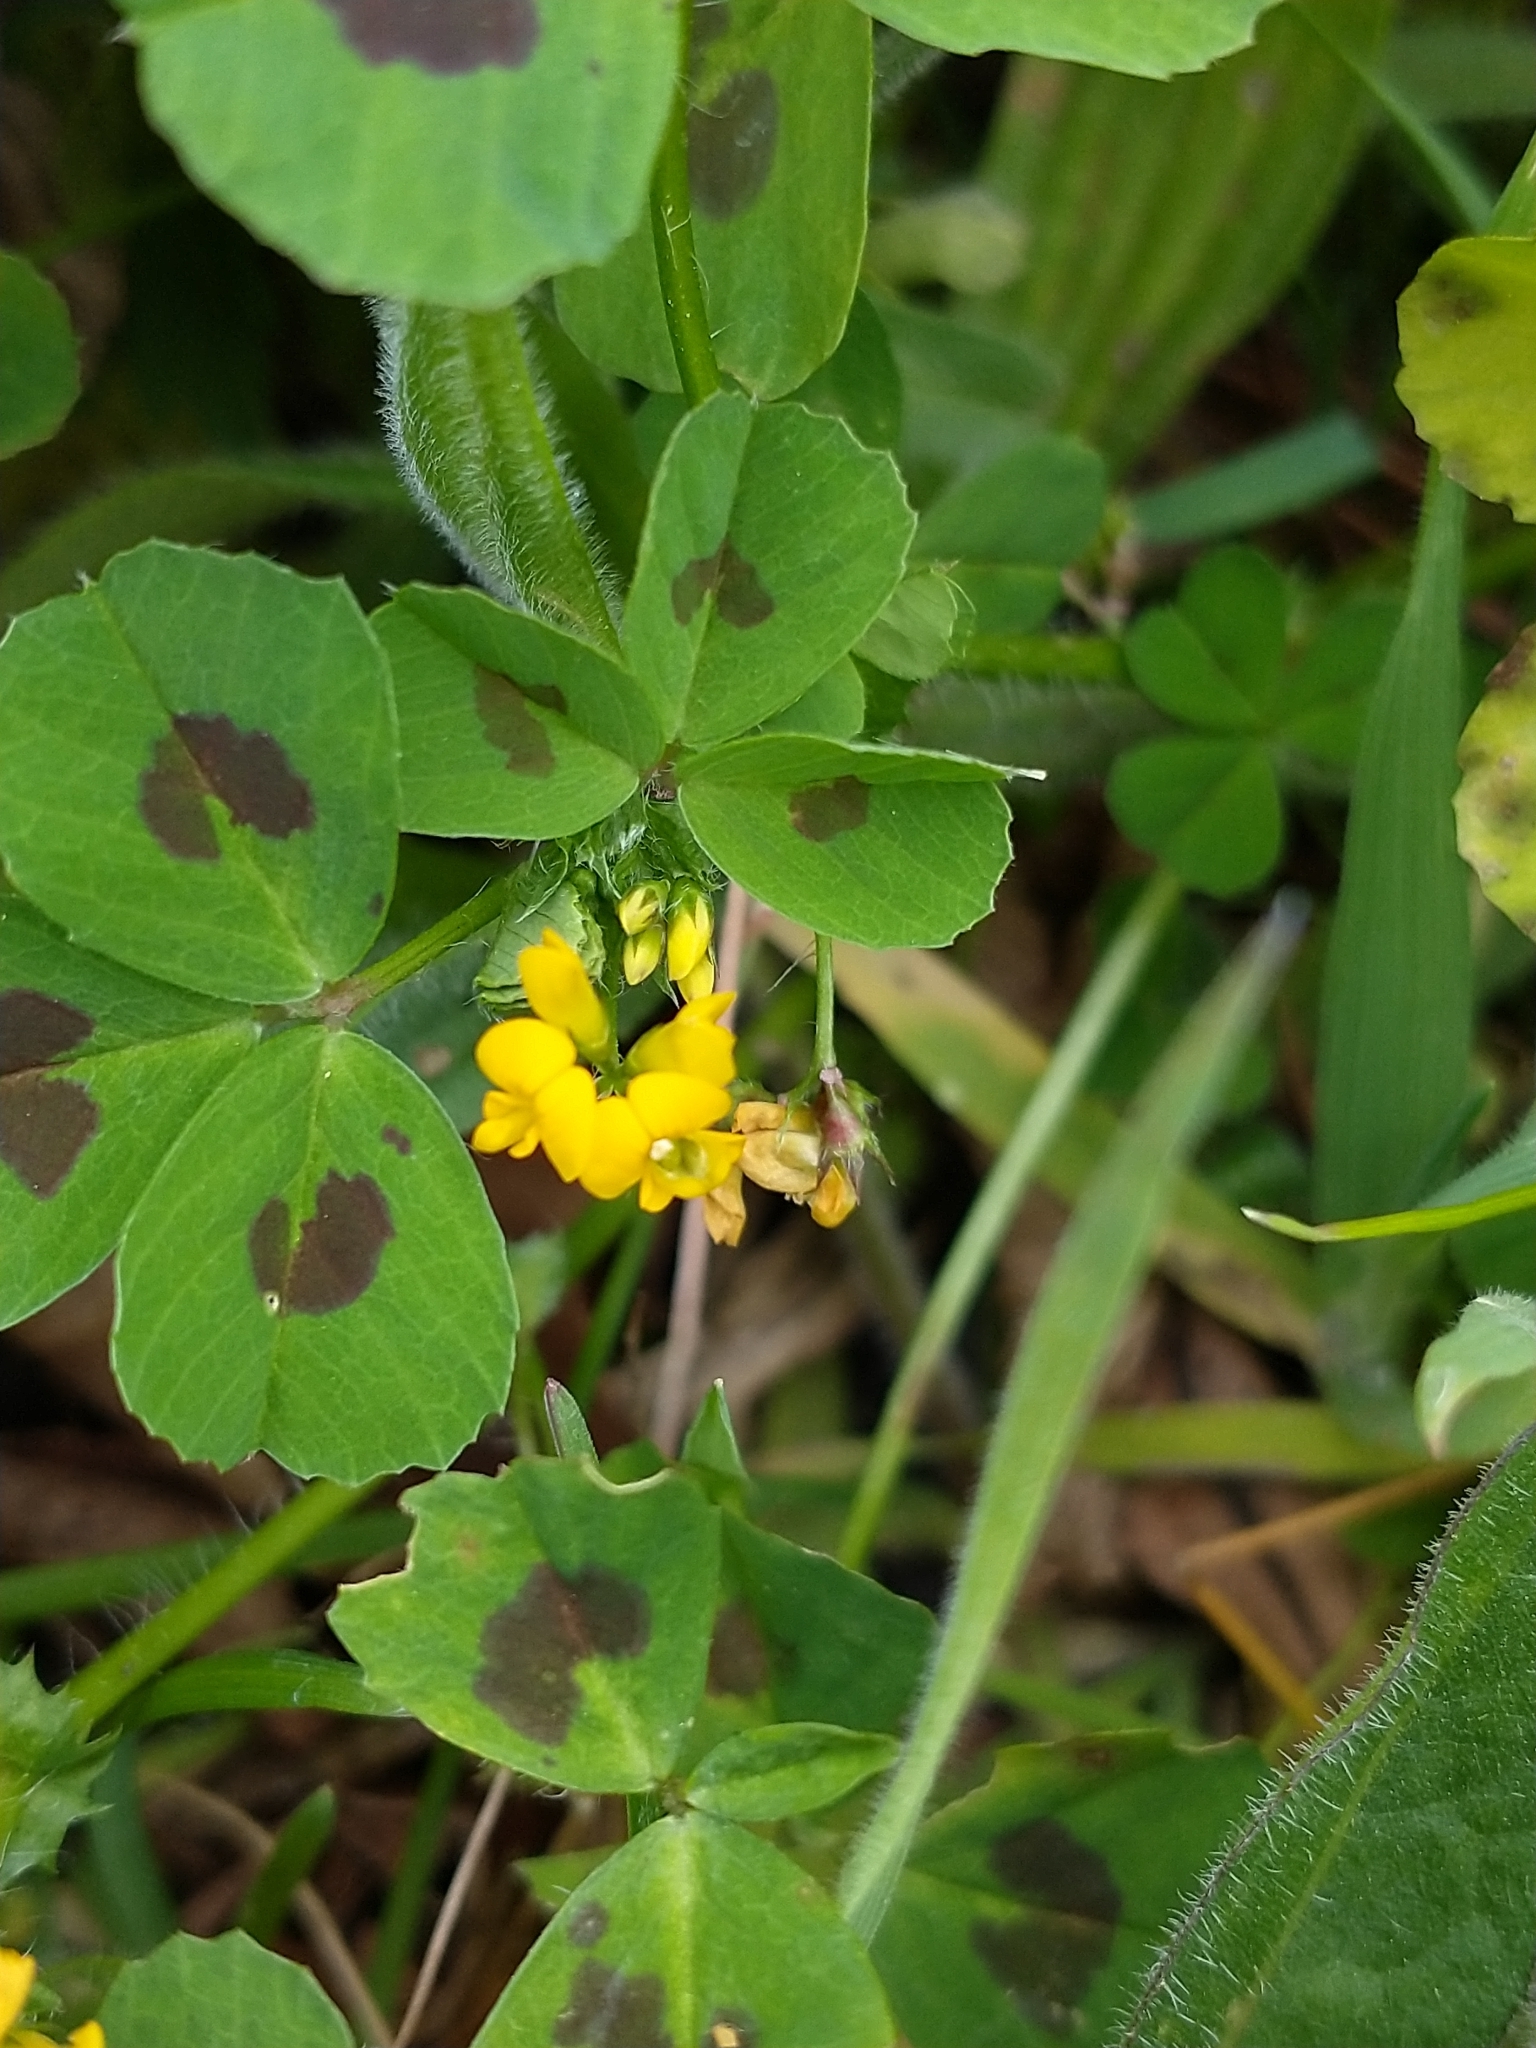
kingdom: Plantae
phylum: Tracheophyta
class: Magnoliopsida
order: Fabales
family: Fabaceae
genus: Medicago
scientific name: Medicago arabica
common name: Spotted medick
